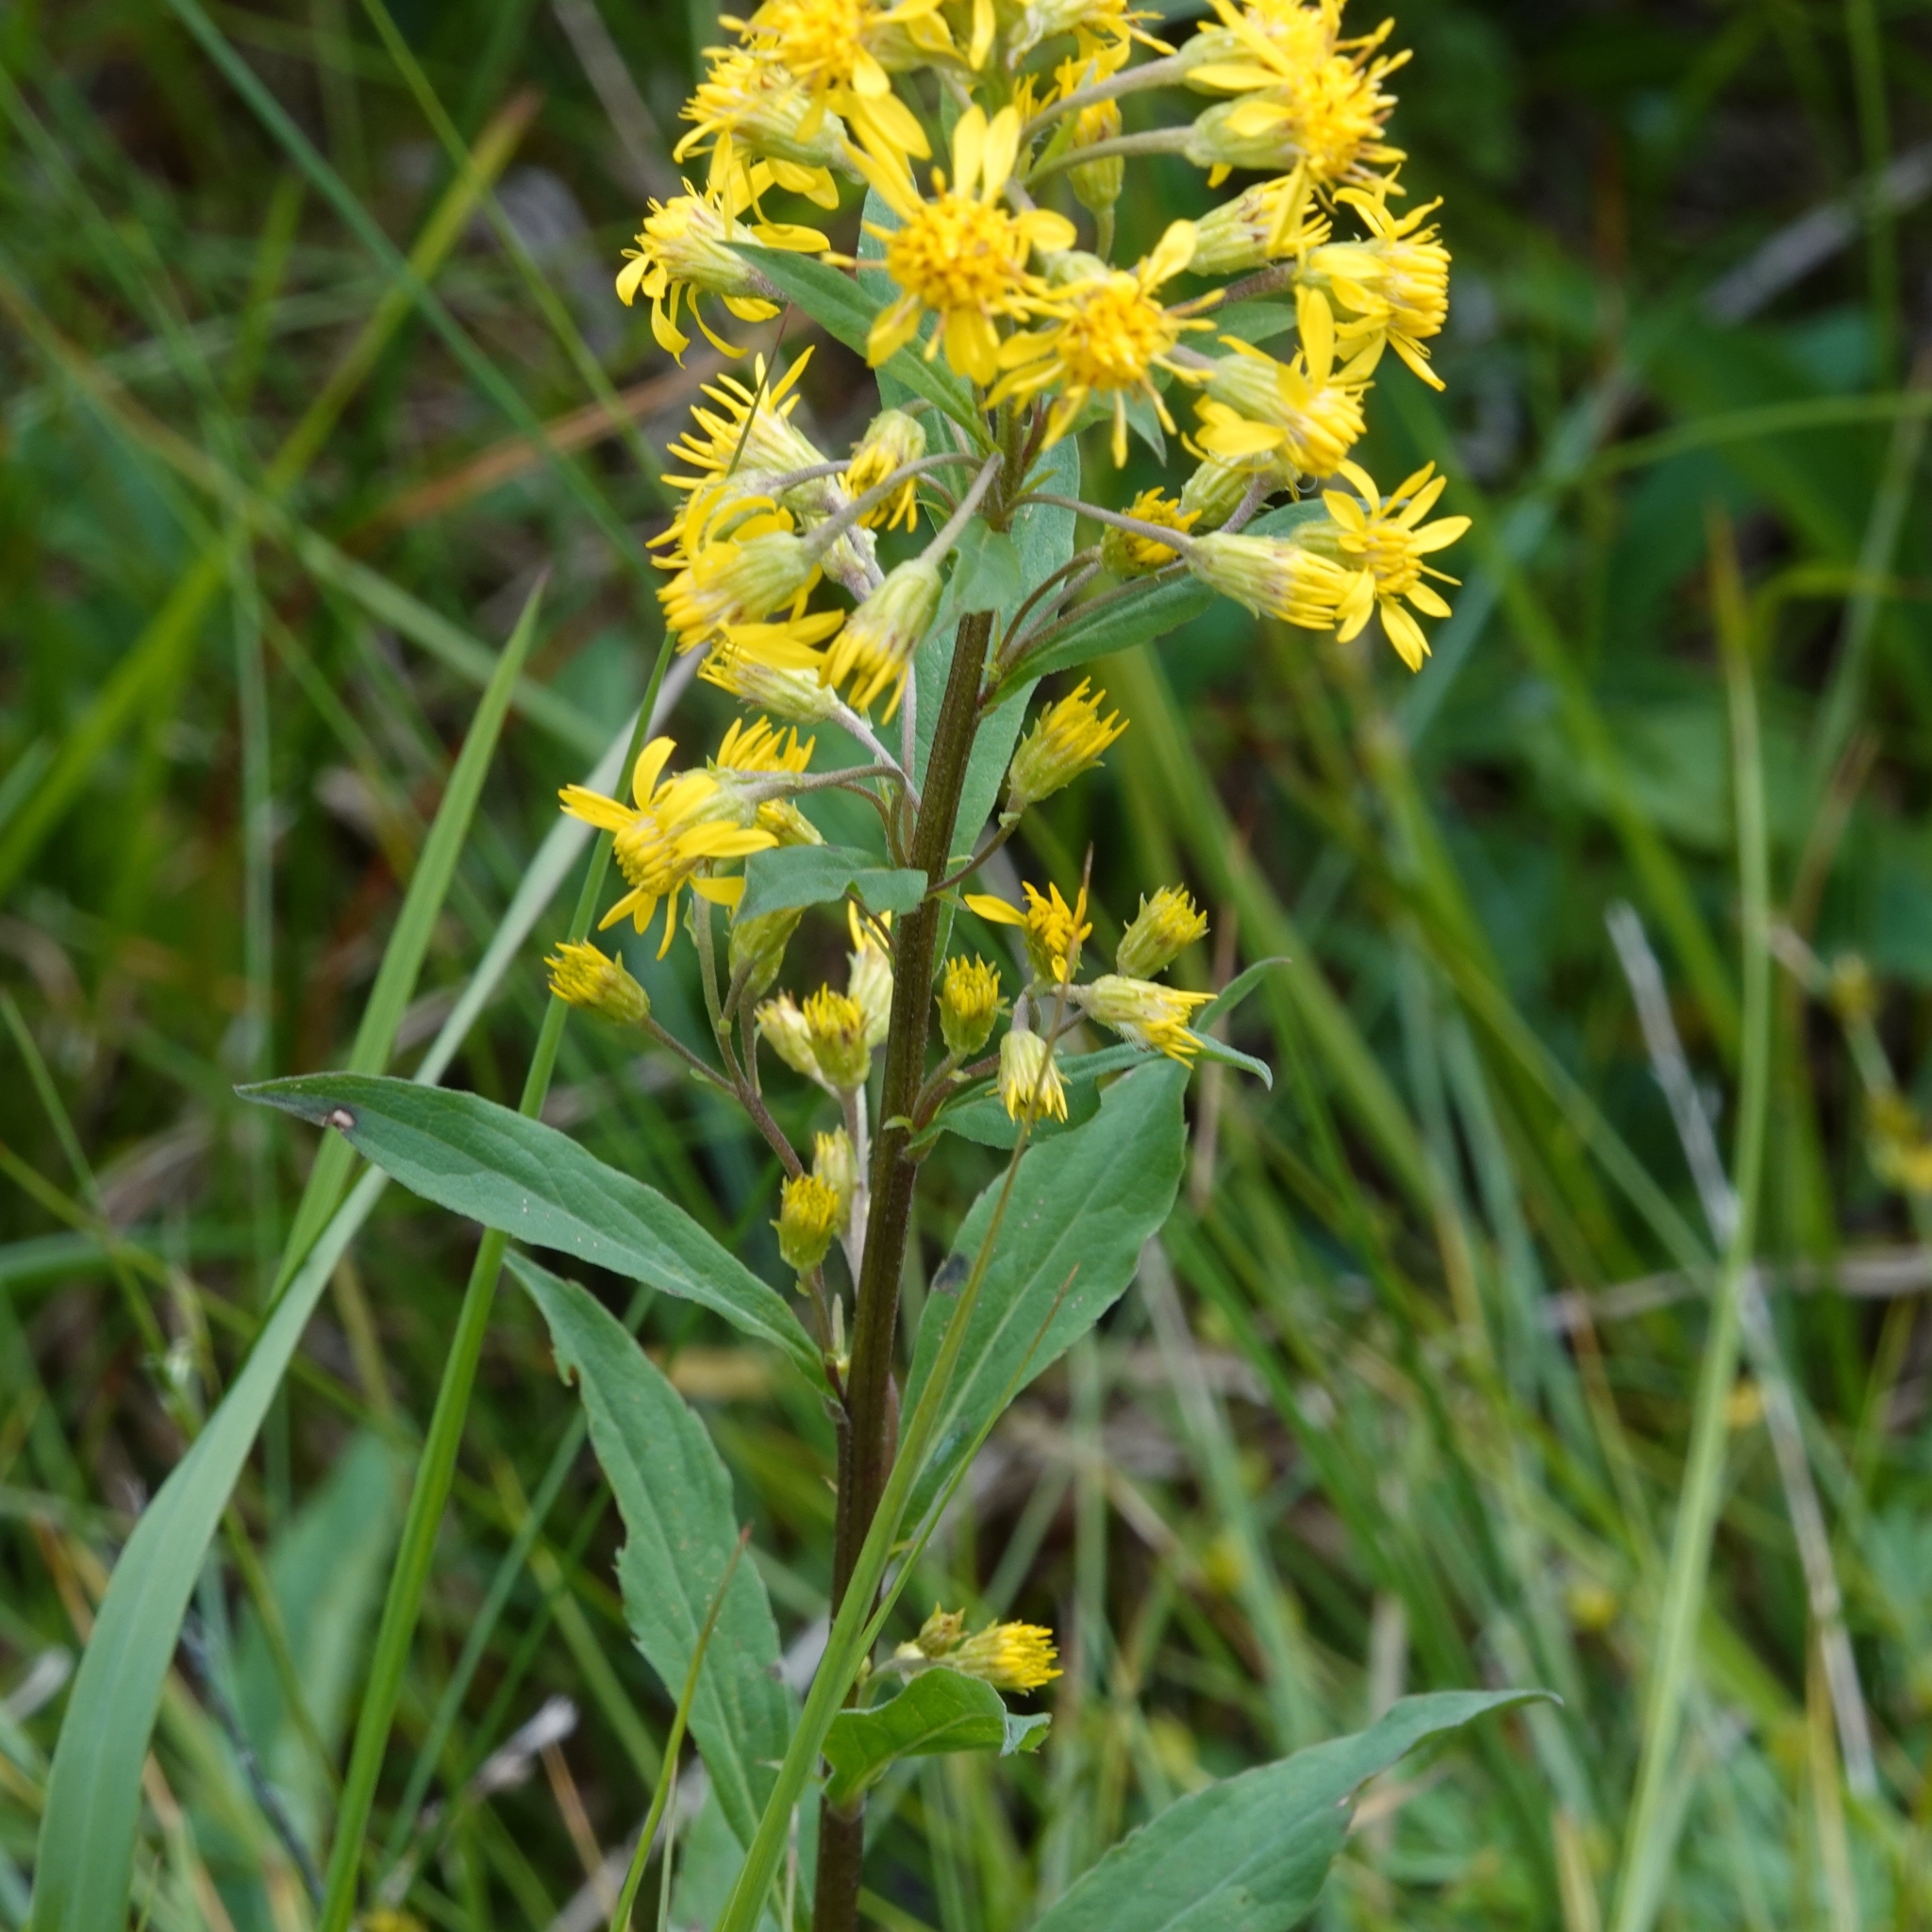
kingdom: Plantae
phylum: Tracheophyta
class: Magnoliopsida
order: Asterales
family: Asteraceae
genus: Solidago
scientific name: Solidago virgaurea
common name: Goldenrod
